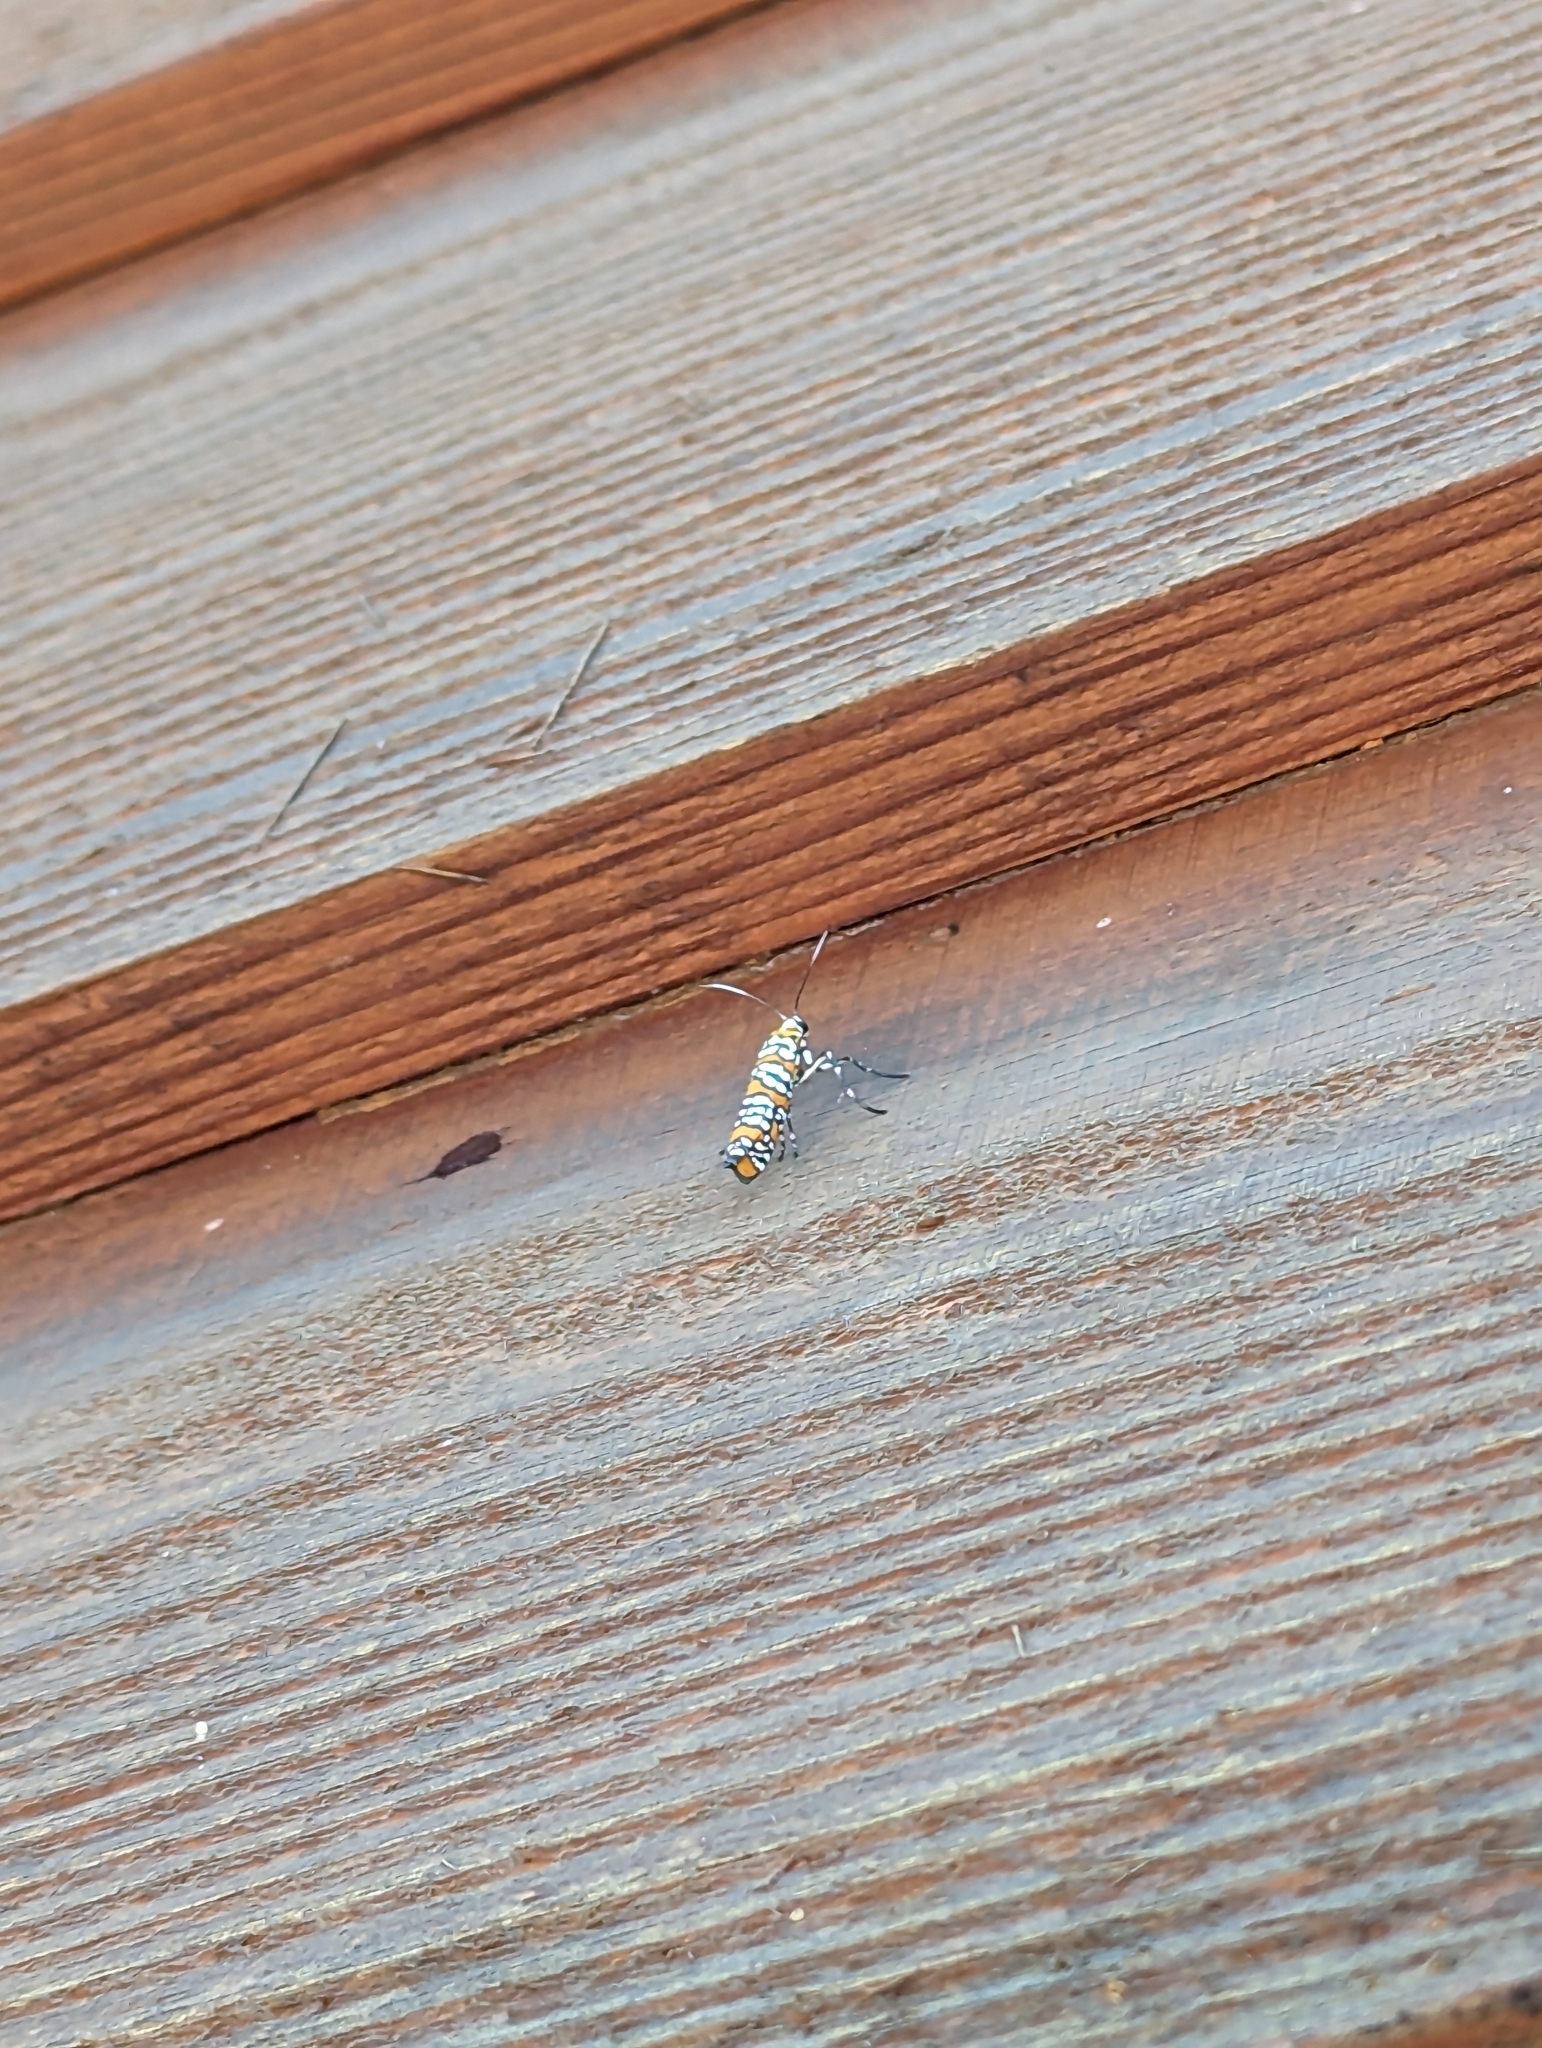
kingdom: Animalia
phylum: Arthropoda
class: Insecta
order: Lepidoptera
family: Attevidae
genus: Atteva
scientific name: Atteva punctella
